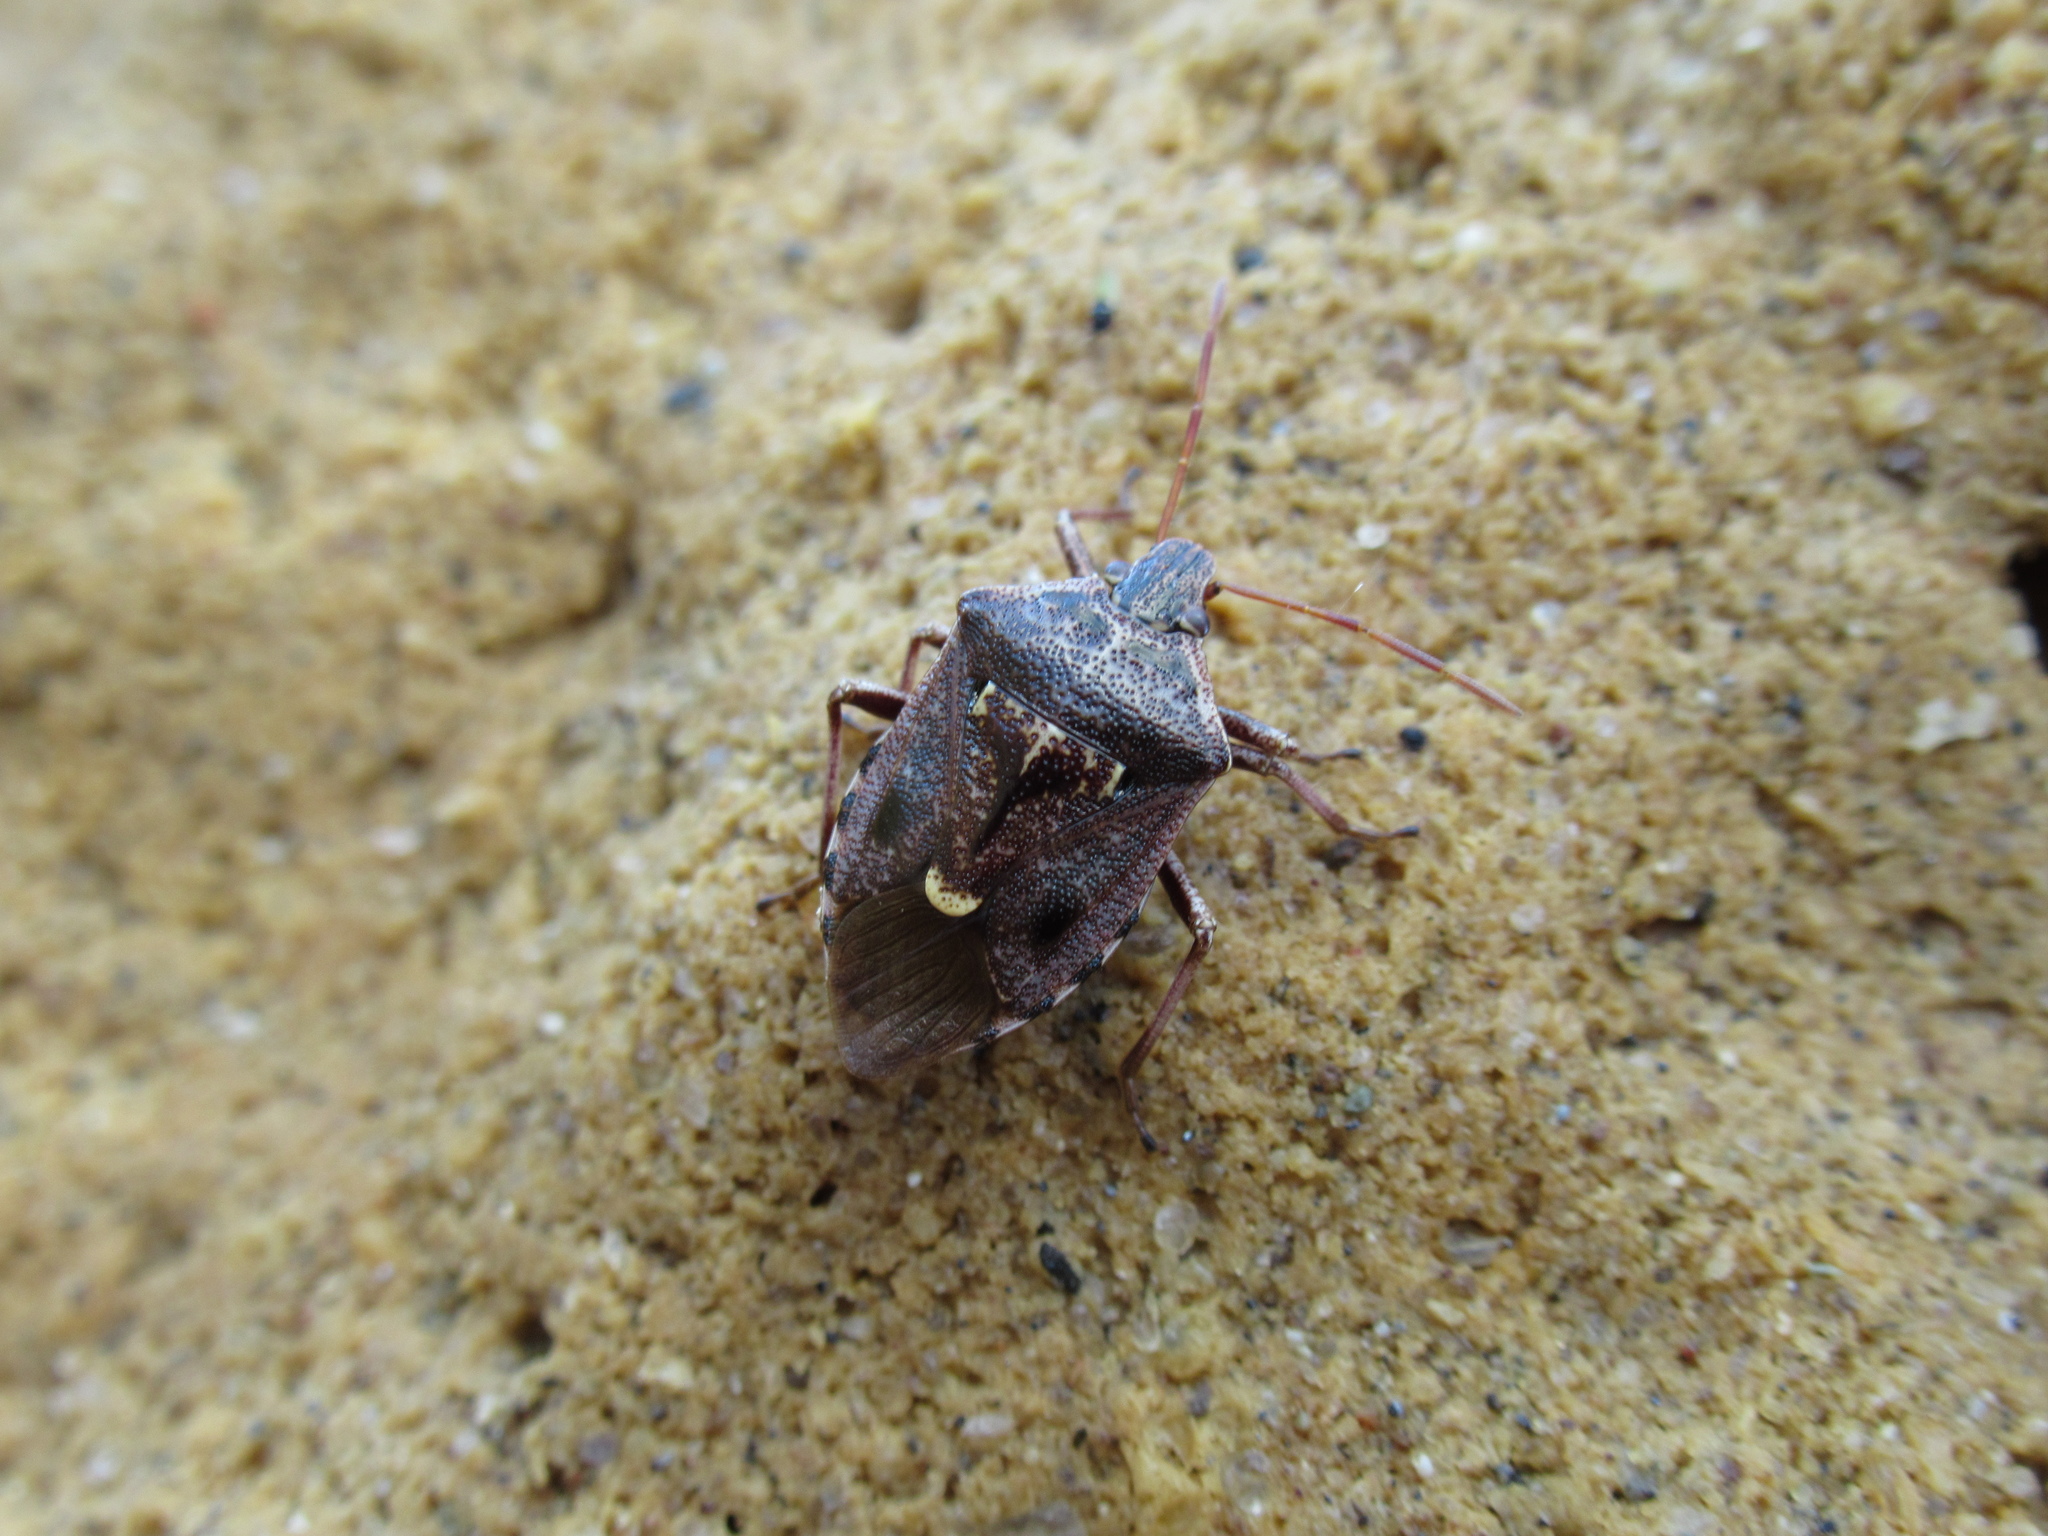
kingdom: Animalia
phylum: Arthropoda
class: Insecta
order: Hemiptera
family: Pentatomidae
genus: Cermatulus
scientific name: Cermatulus nasalis
